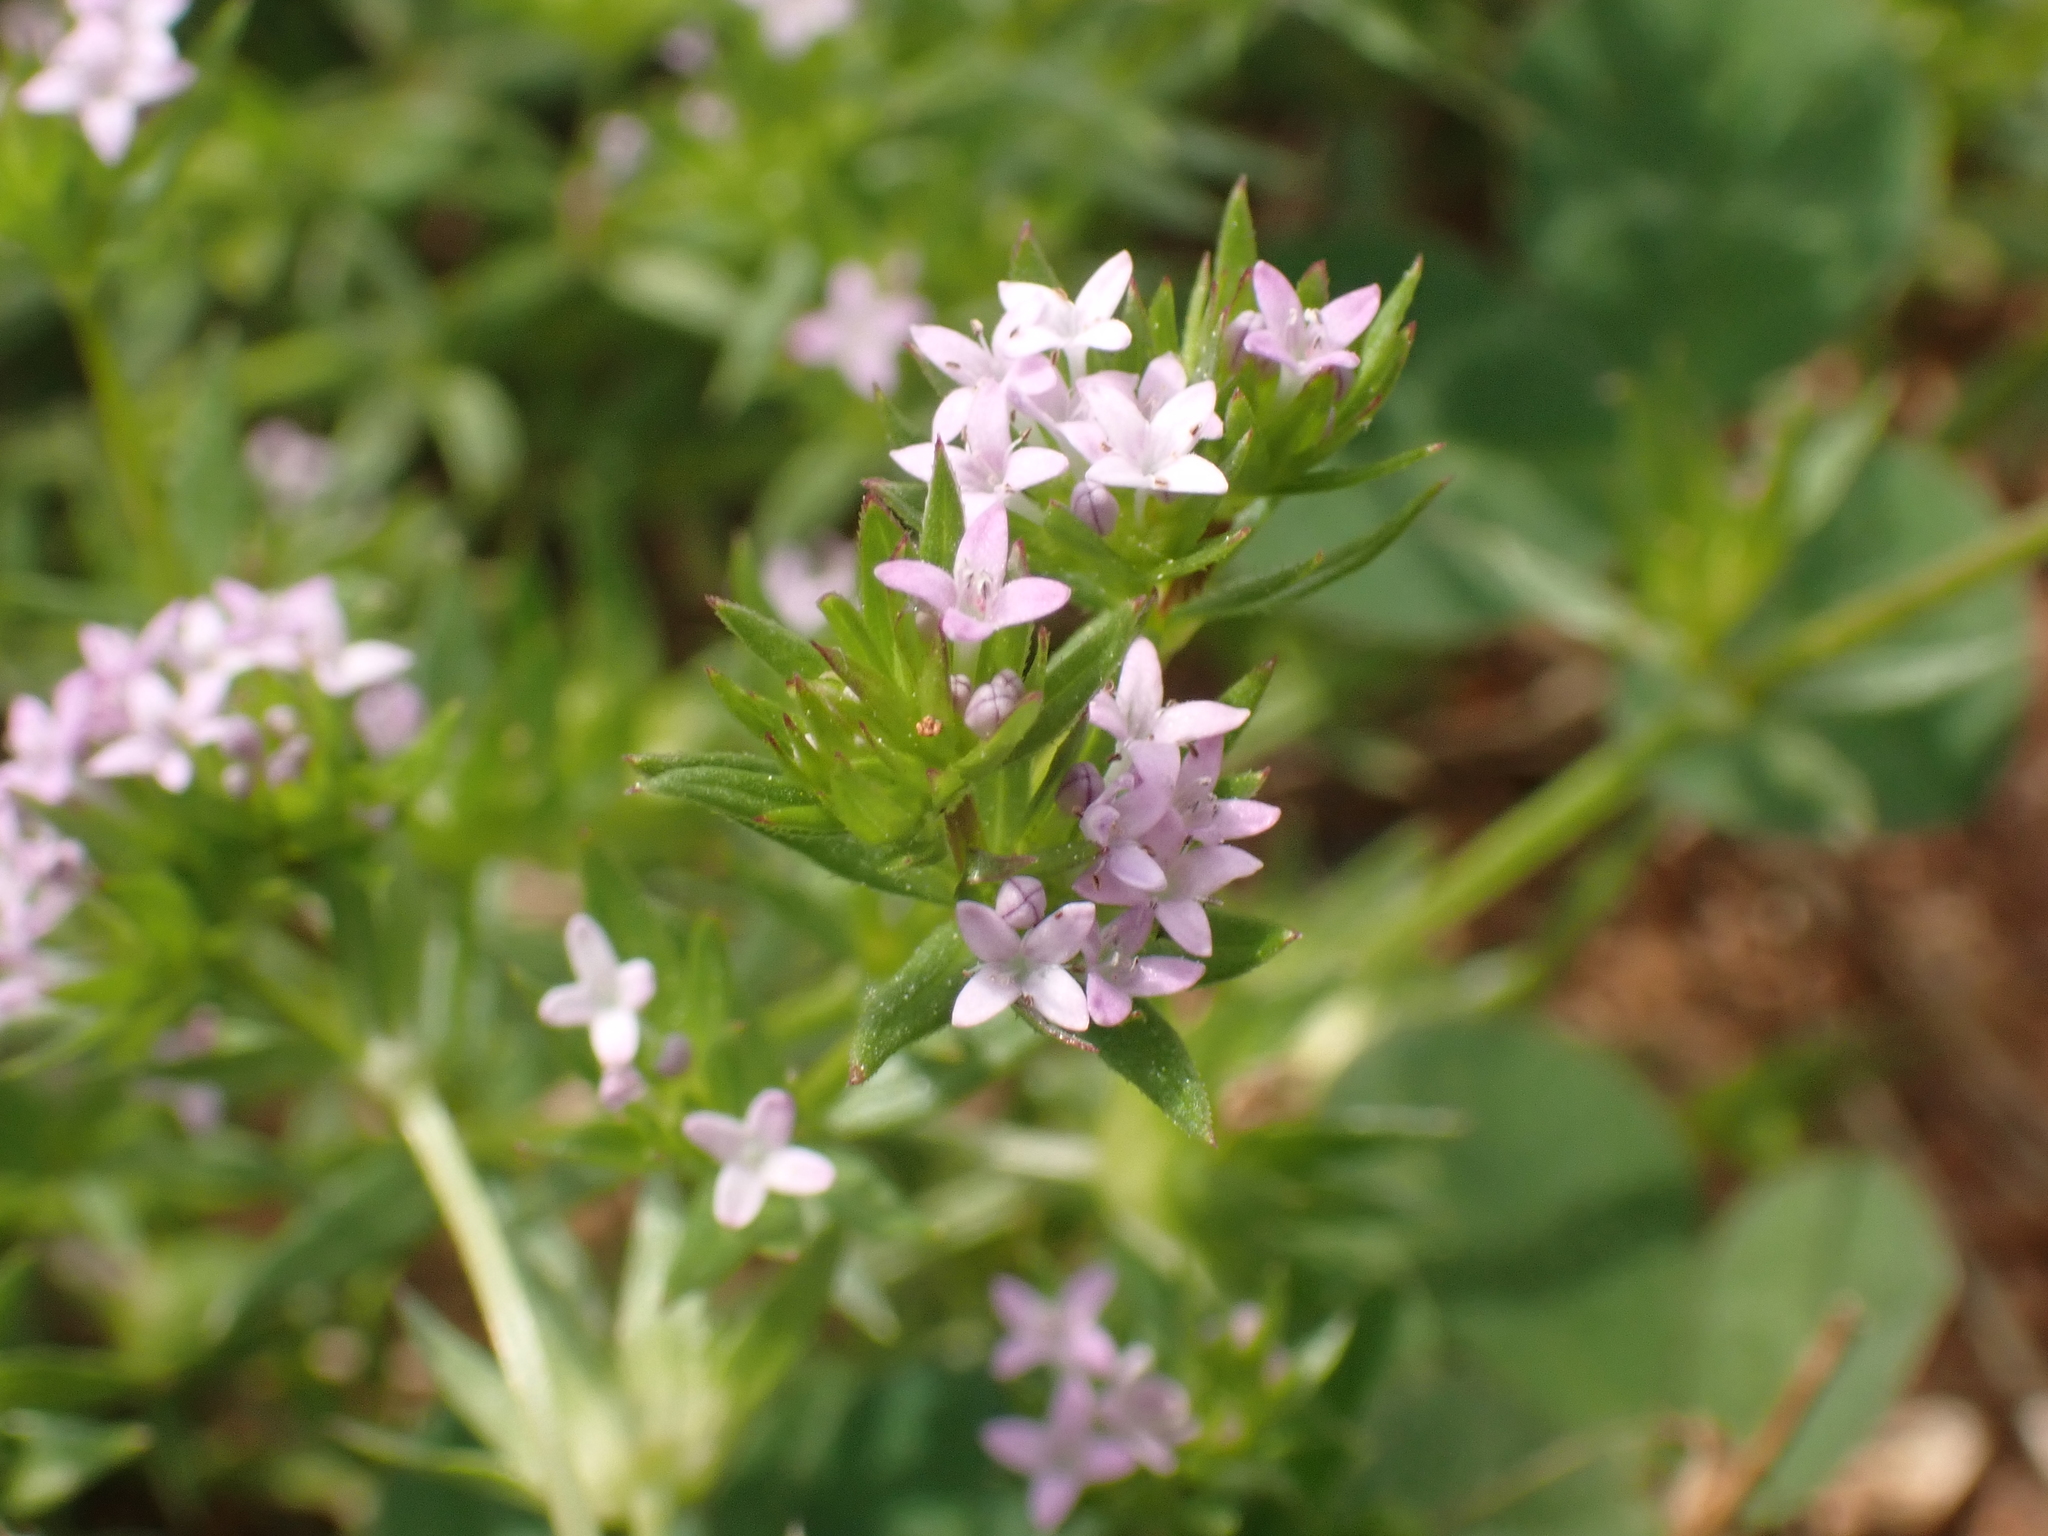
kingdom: Plantae
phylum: Tracheophyta
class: Magnoliopsida
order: Gentianales
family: Rubiaceae
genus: Sherardia
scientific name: Sherardia arvensis
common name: Field madder
